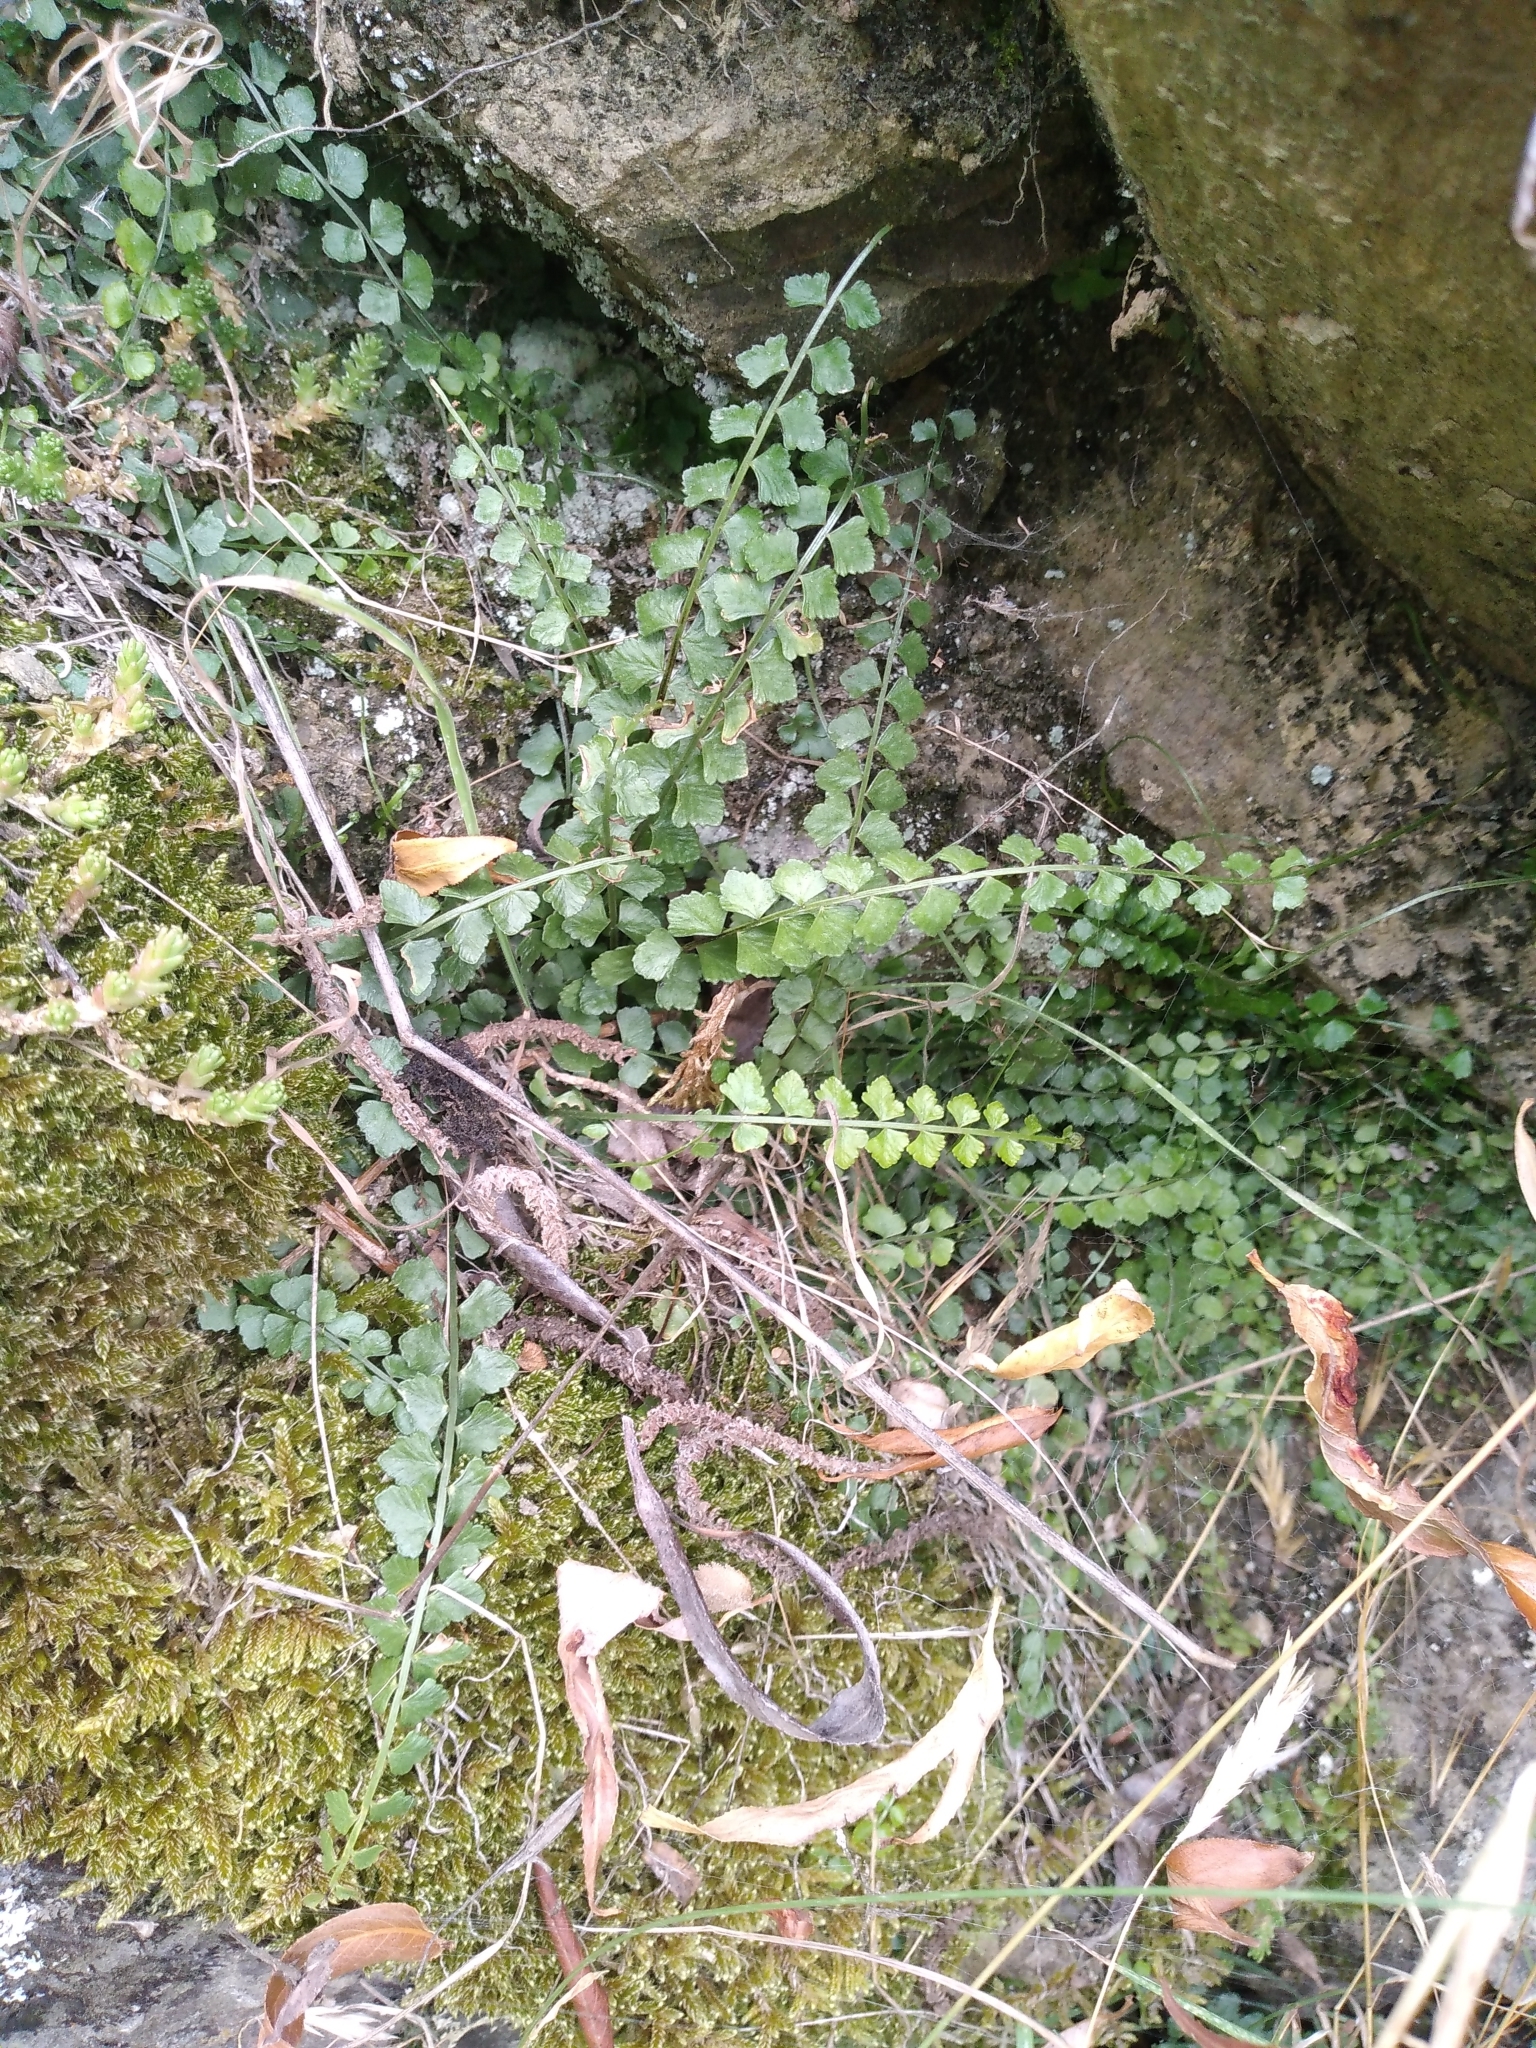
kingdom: Plantae
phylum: Tracheophyta
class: Polypodiopsida
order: Polypodiales
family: Aspleniaceae
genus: Asplenium
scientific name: Asplenium flabellifolium
